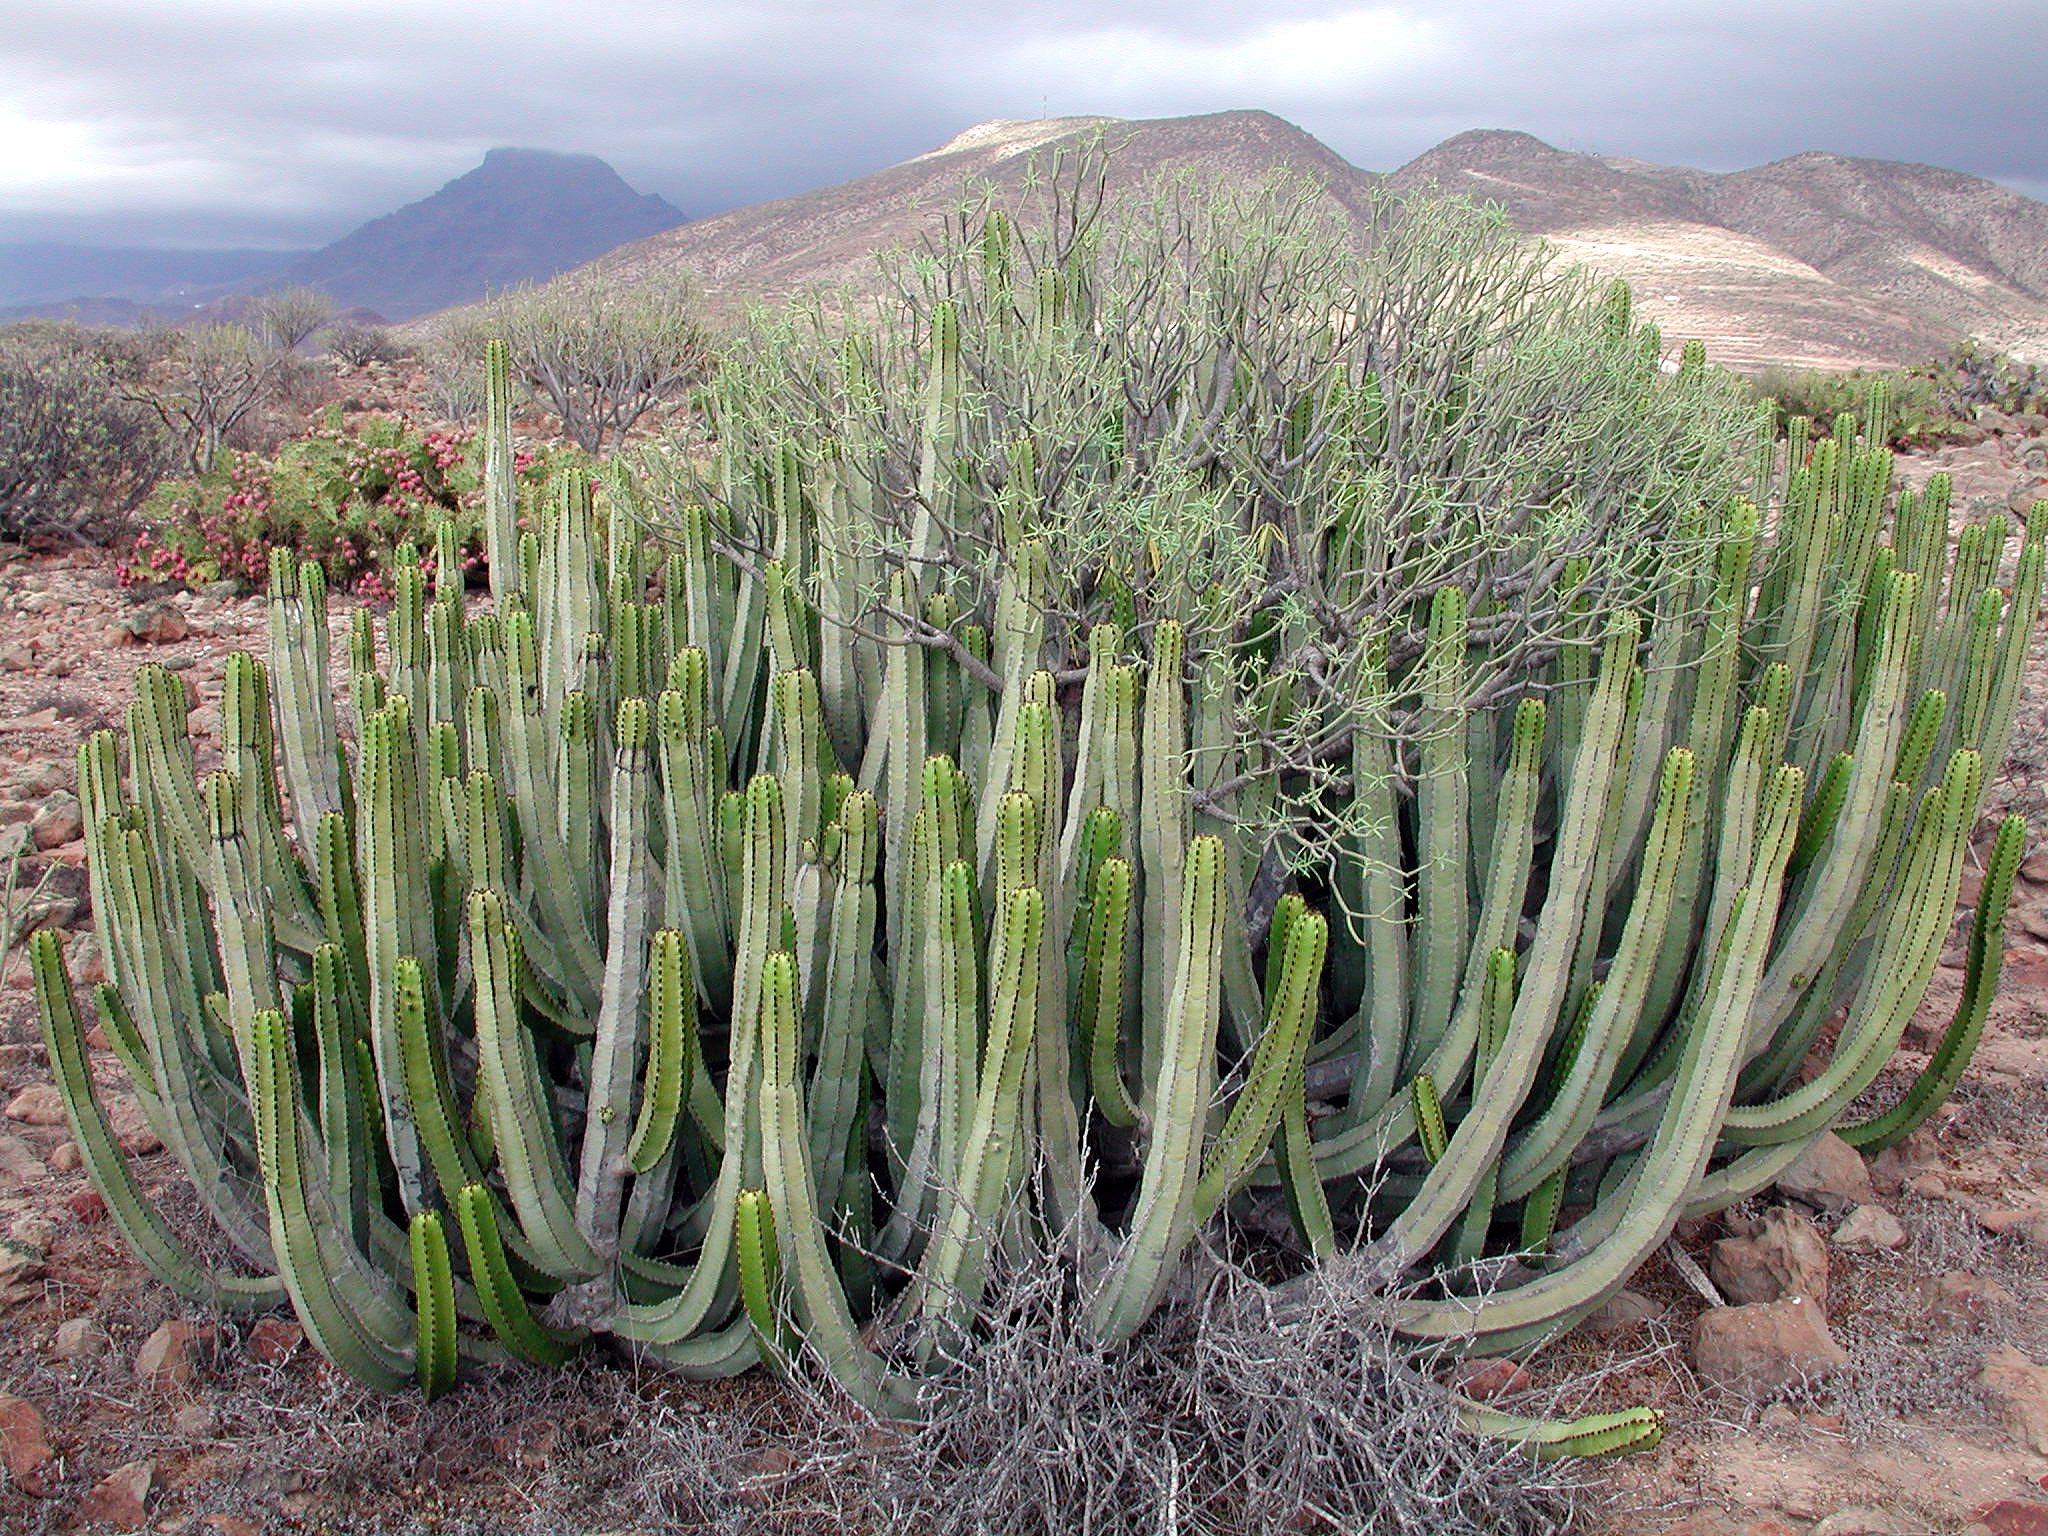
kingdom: Plantae
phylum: Tracheophyta
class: Magnoliopsida
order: Malpighiales
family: Euphorbiaceae
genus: Euphorbia
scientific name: Euphorbia canariensis
